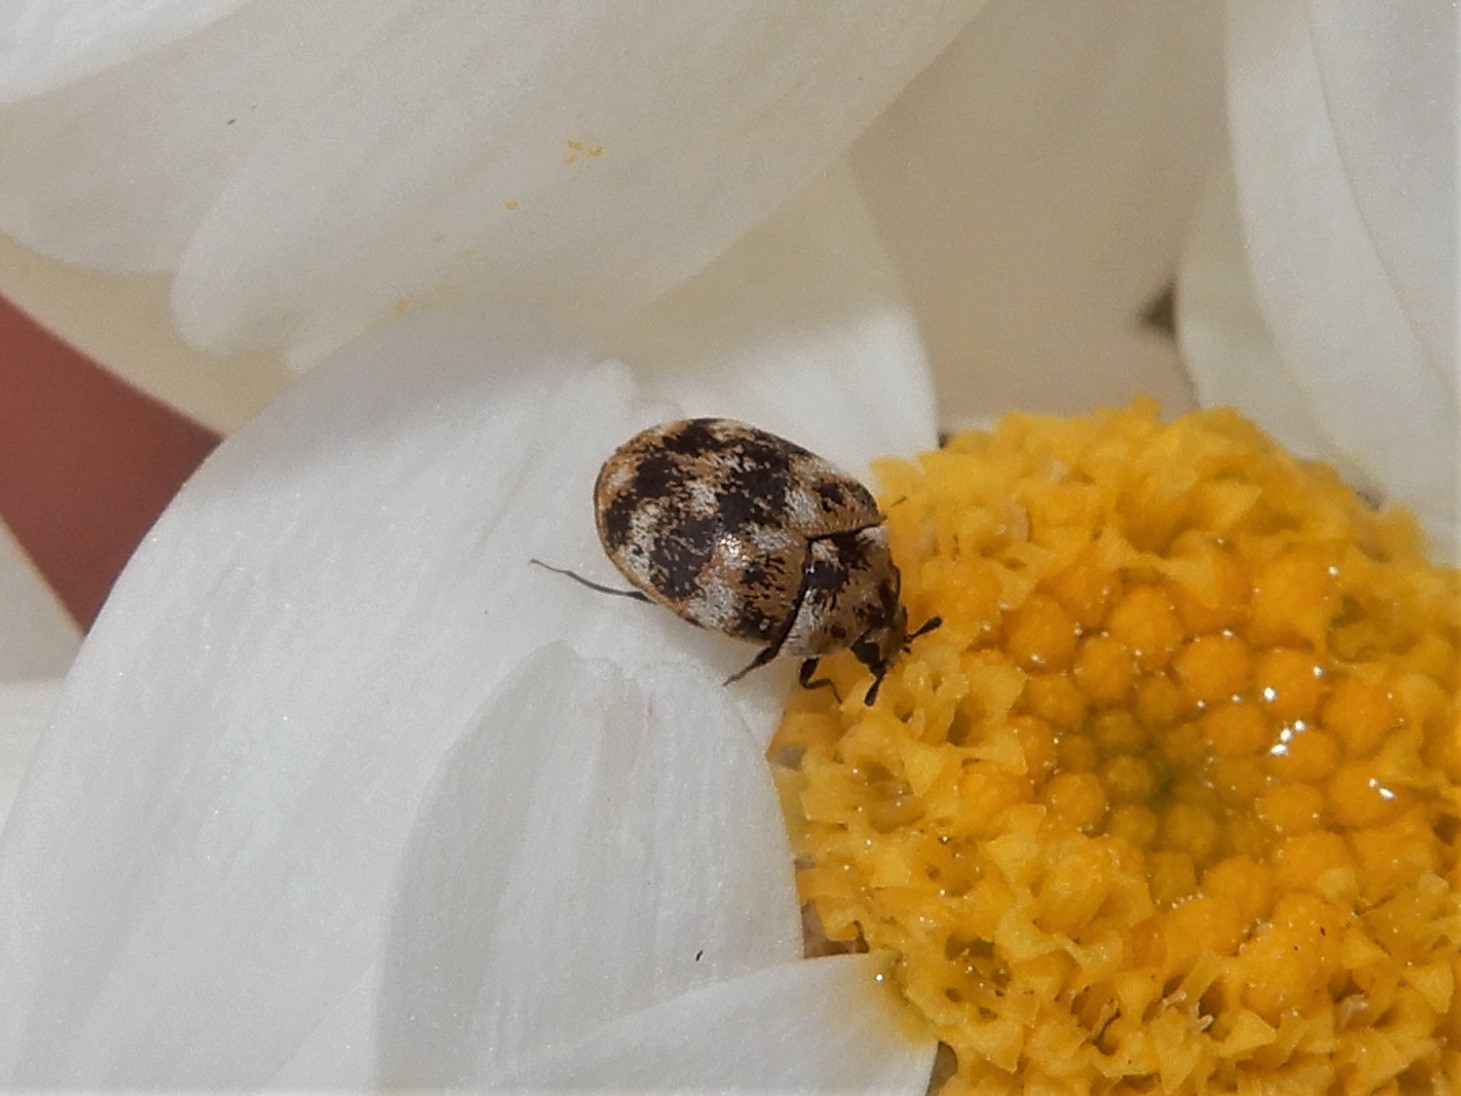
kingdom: Animalia
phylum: Arthropoda
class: Insecta
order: Coleoptera
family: Dermestidae
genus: Anthrenus
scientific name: Anthrenus verbasci
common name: Varied carpet beetle
